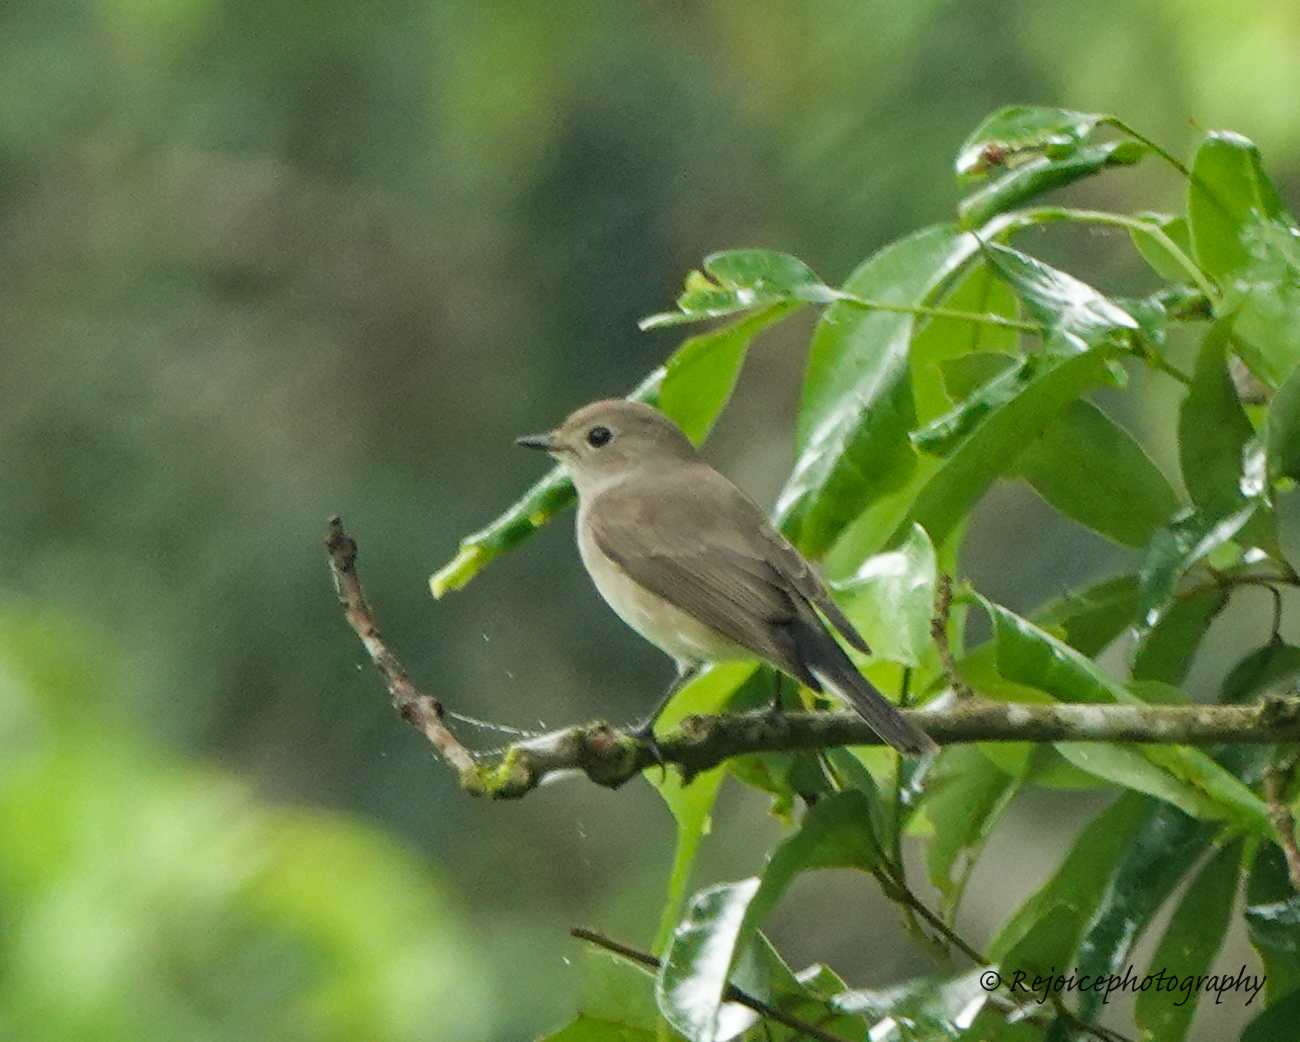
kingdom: Animalia
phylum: Chordata
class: Aves
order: Passeriformes
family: Muscicapidae
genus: Ficedula
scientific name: Ficedula albicilla
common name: Taiga flycatcher
